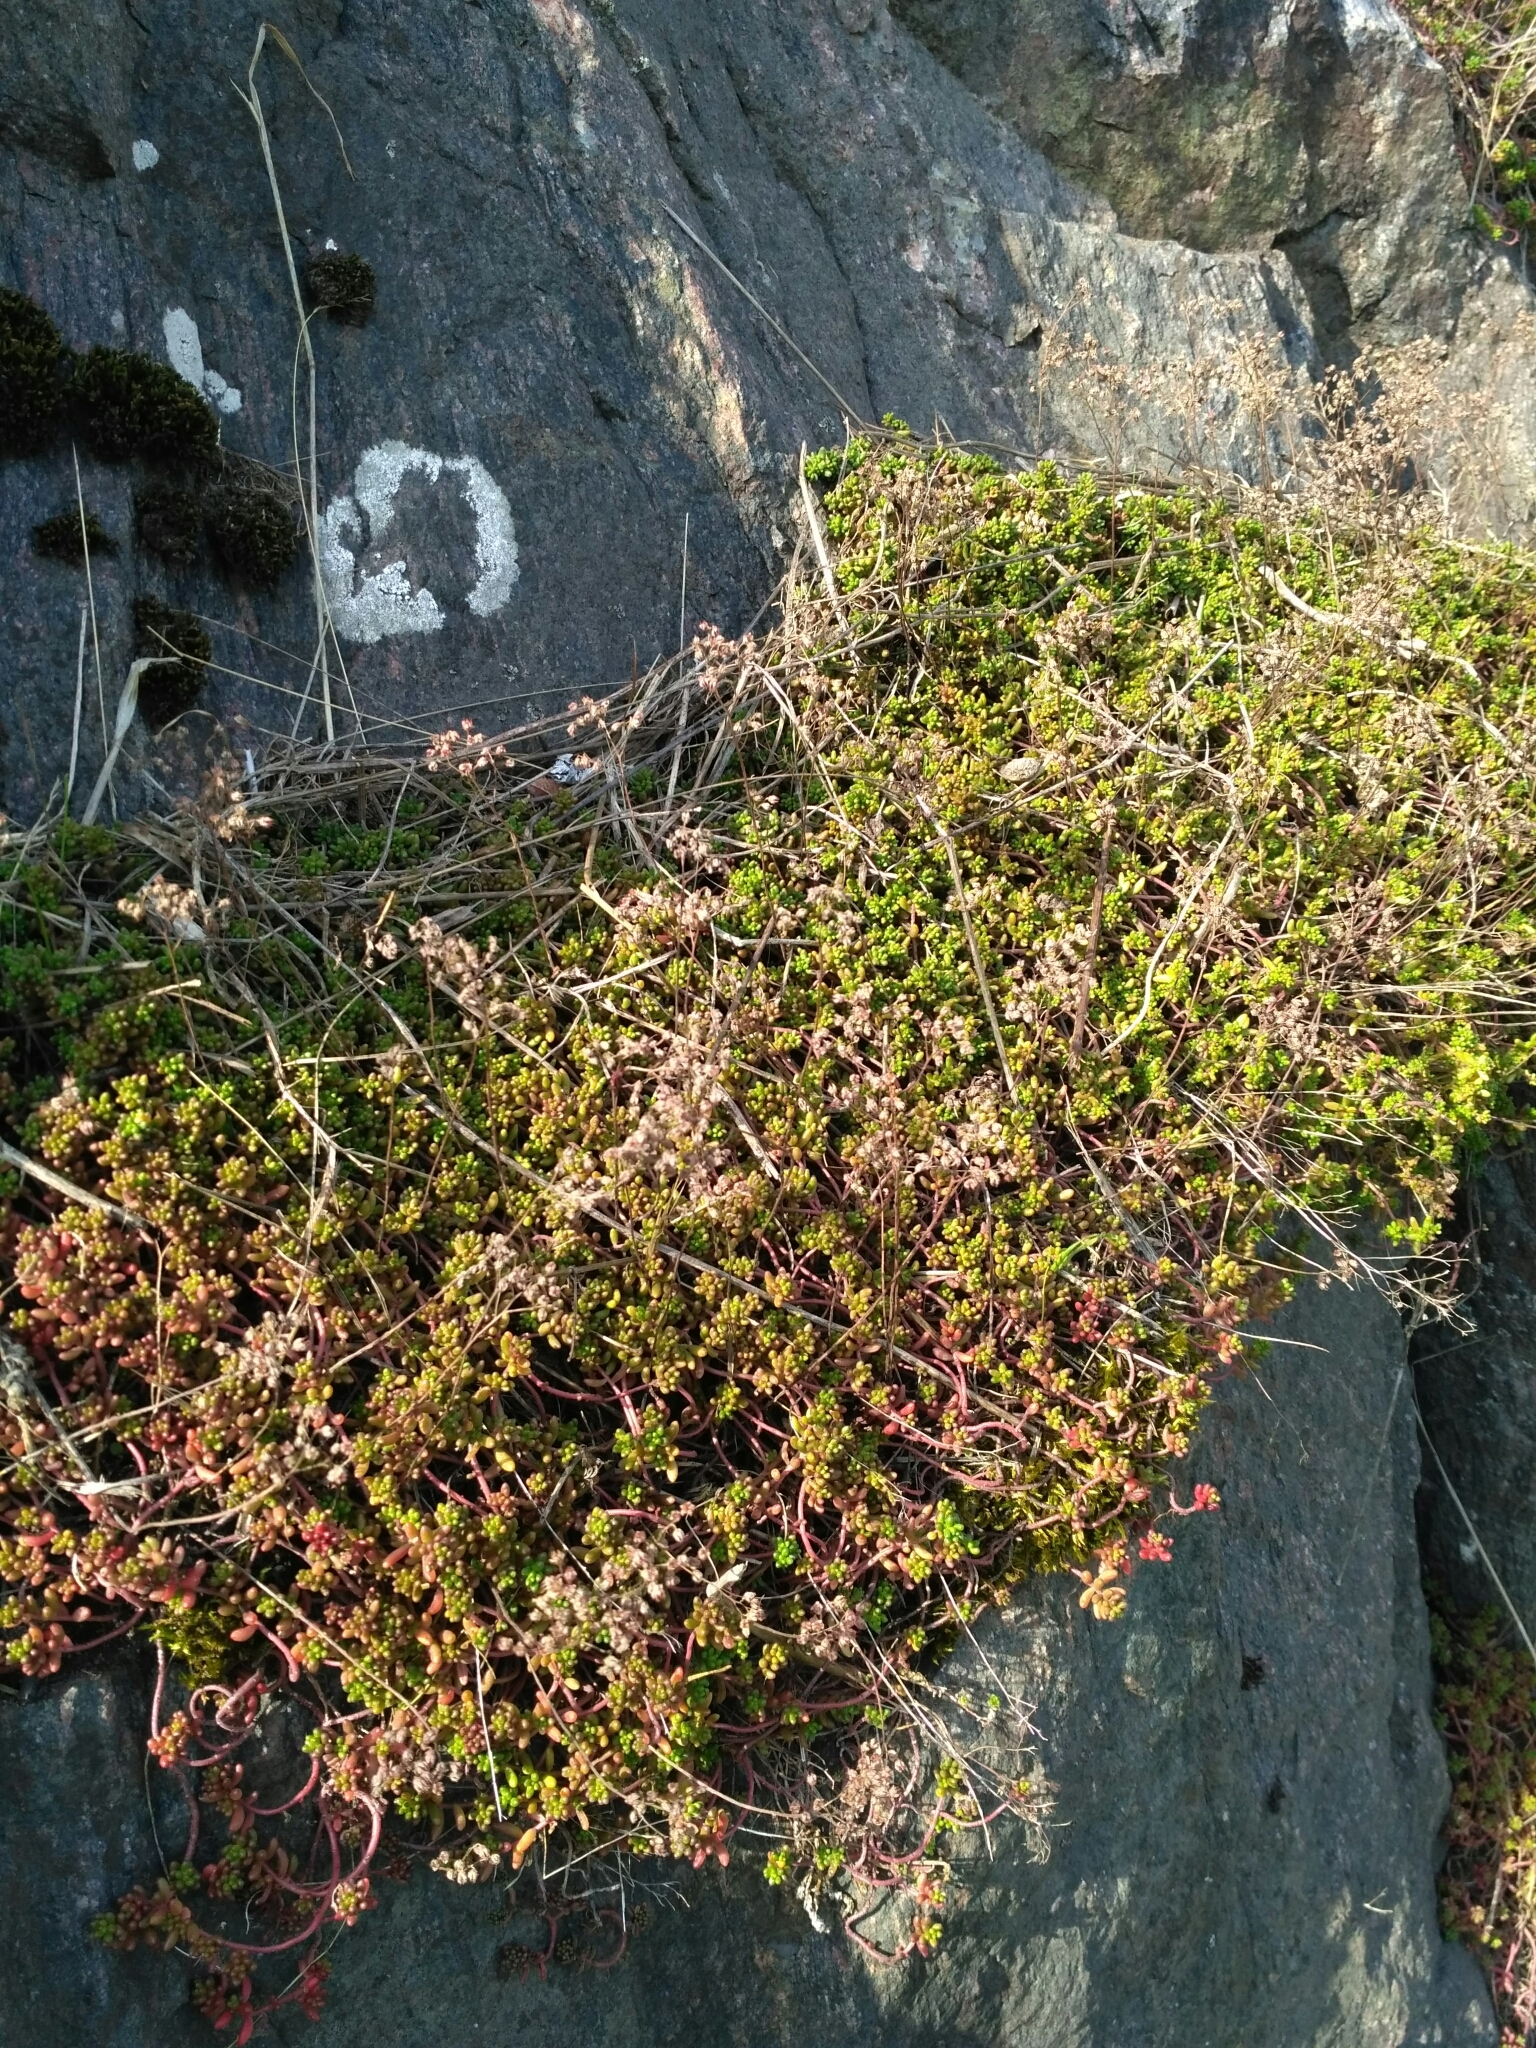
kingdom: Plantae
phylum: Tracheophyta
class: Magnoliopsida
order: Saxifragales
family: Crassulaceae
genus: Sedum
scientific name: Sedum album
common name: White stonecrop
